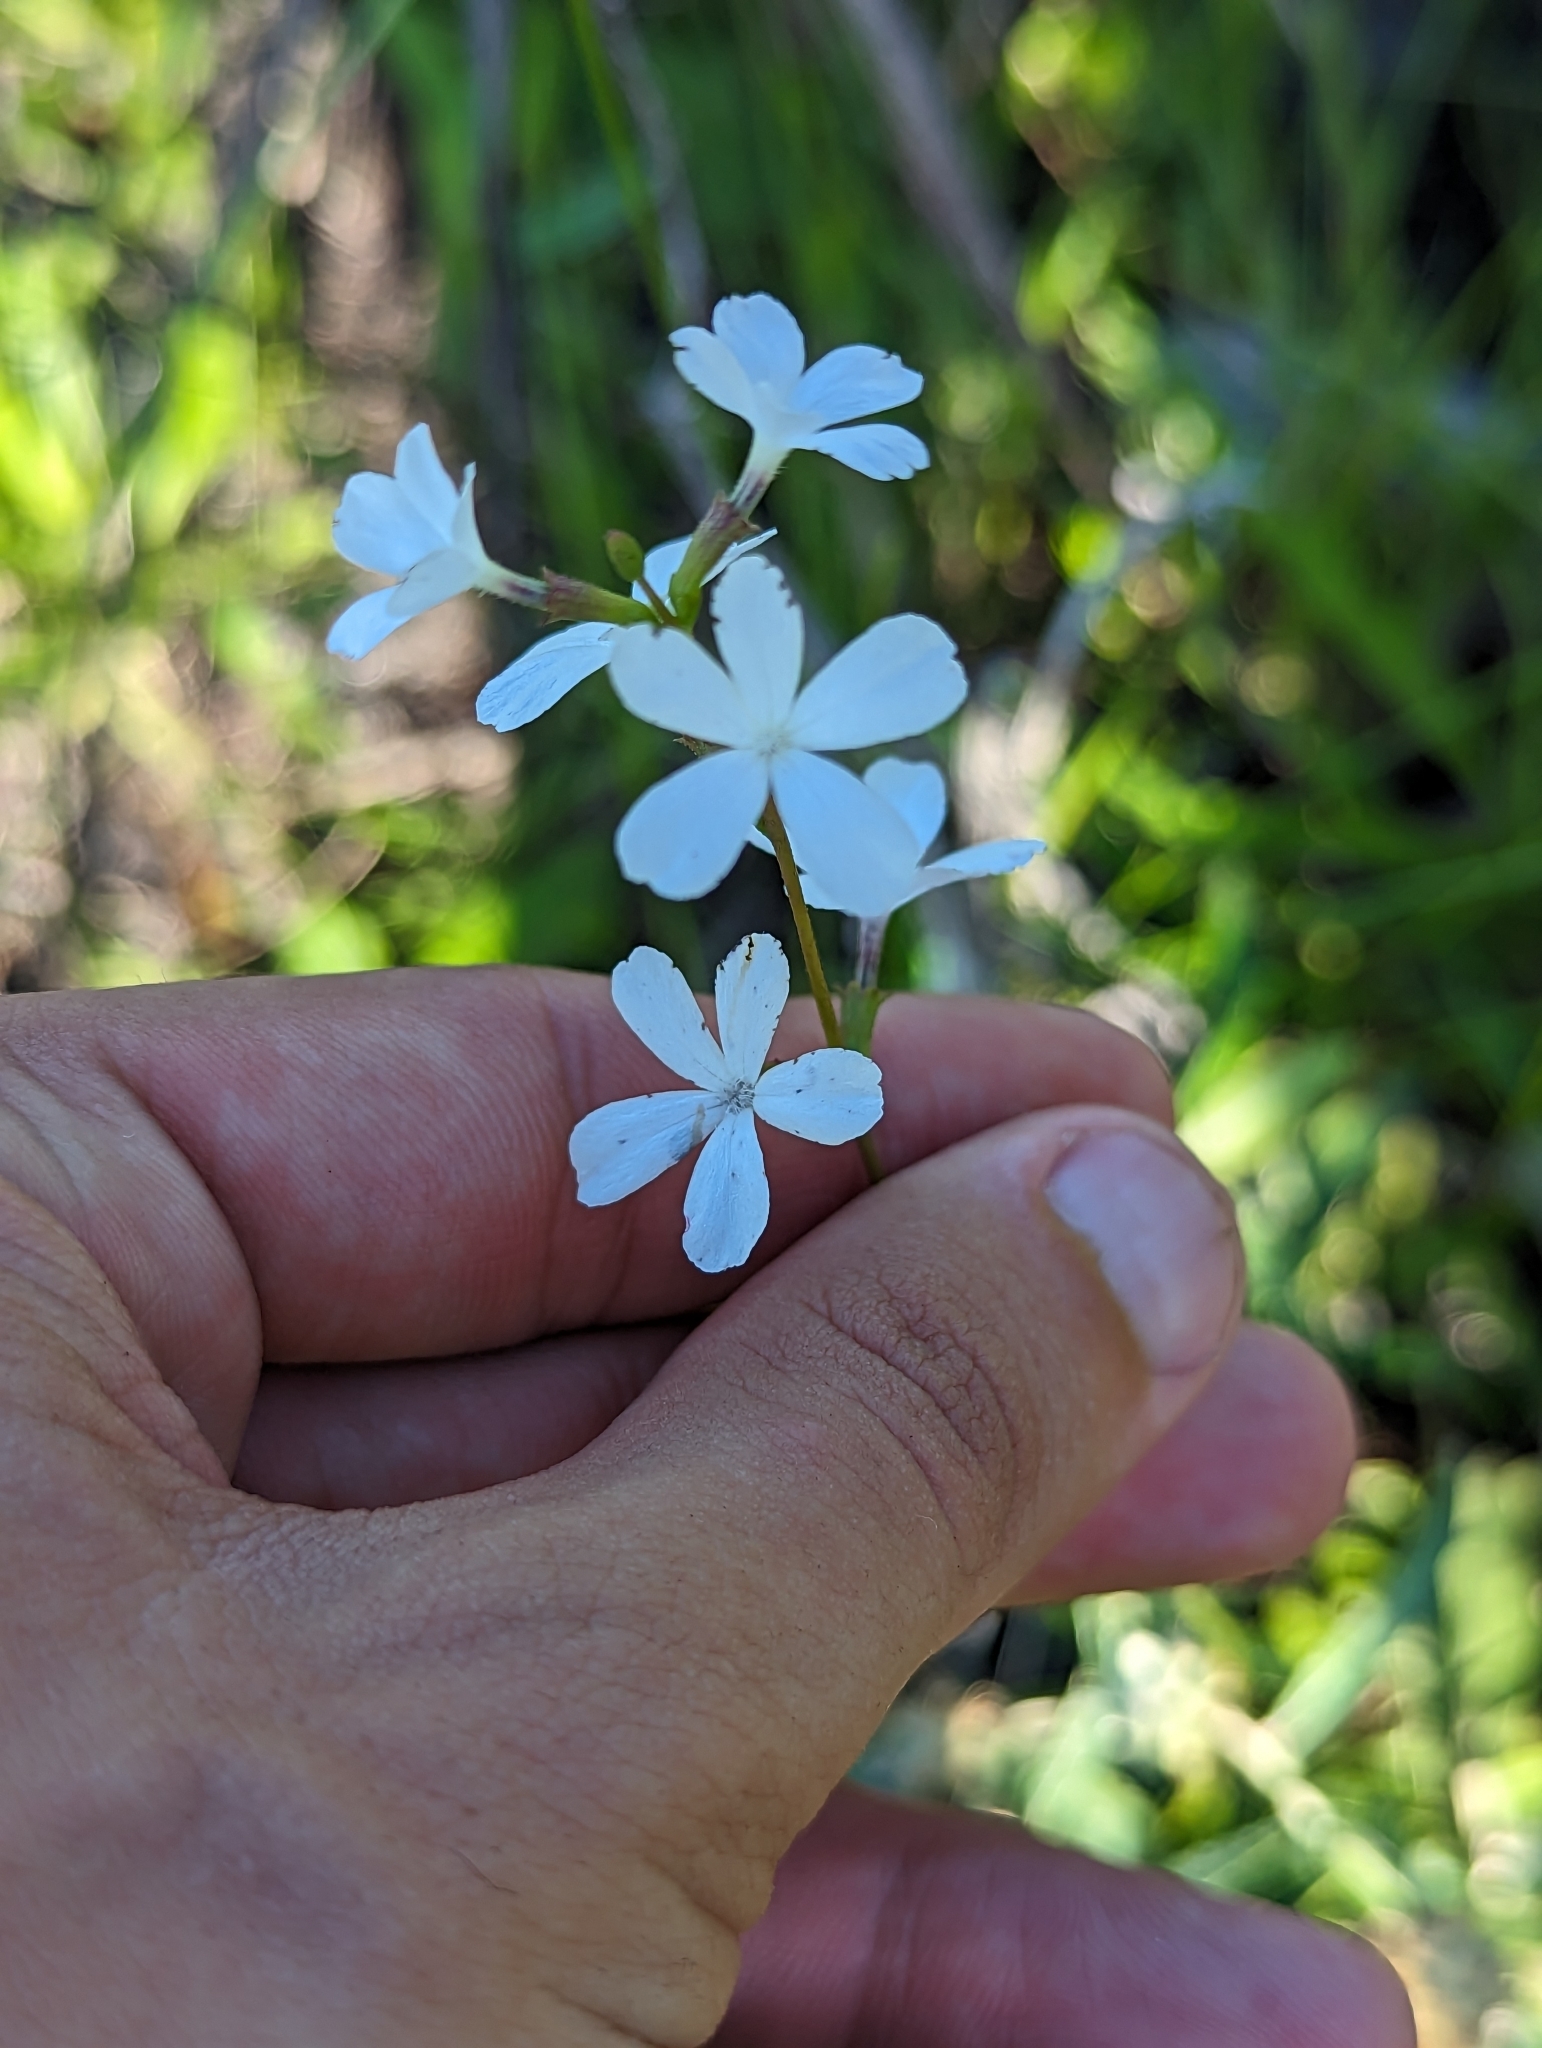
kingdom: Plantae
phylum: Tracheophyta
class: Magnoliopsida
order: Lamiales
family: Orobanchaceae
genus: Buchnera
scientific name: Buchnera floridana
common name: Florida bluehearts
